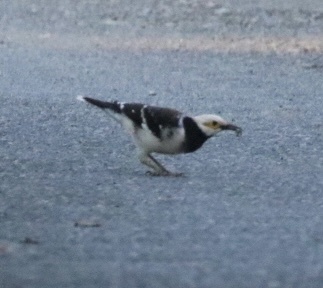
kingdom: Animalia
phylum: Chordata
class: Aves
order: Passeriformes
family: Sturnidae
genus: Gracupica
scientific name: Gracupica nigricollis
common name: Black-collared starling
